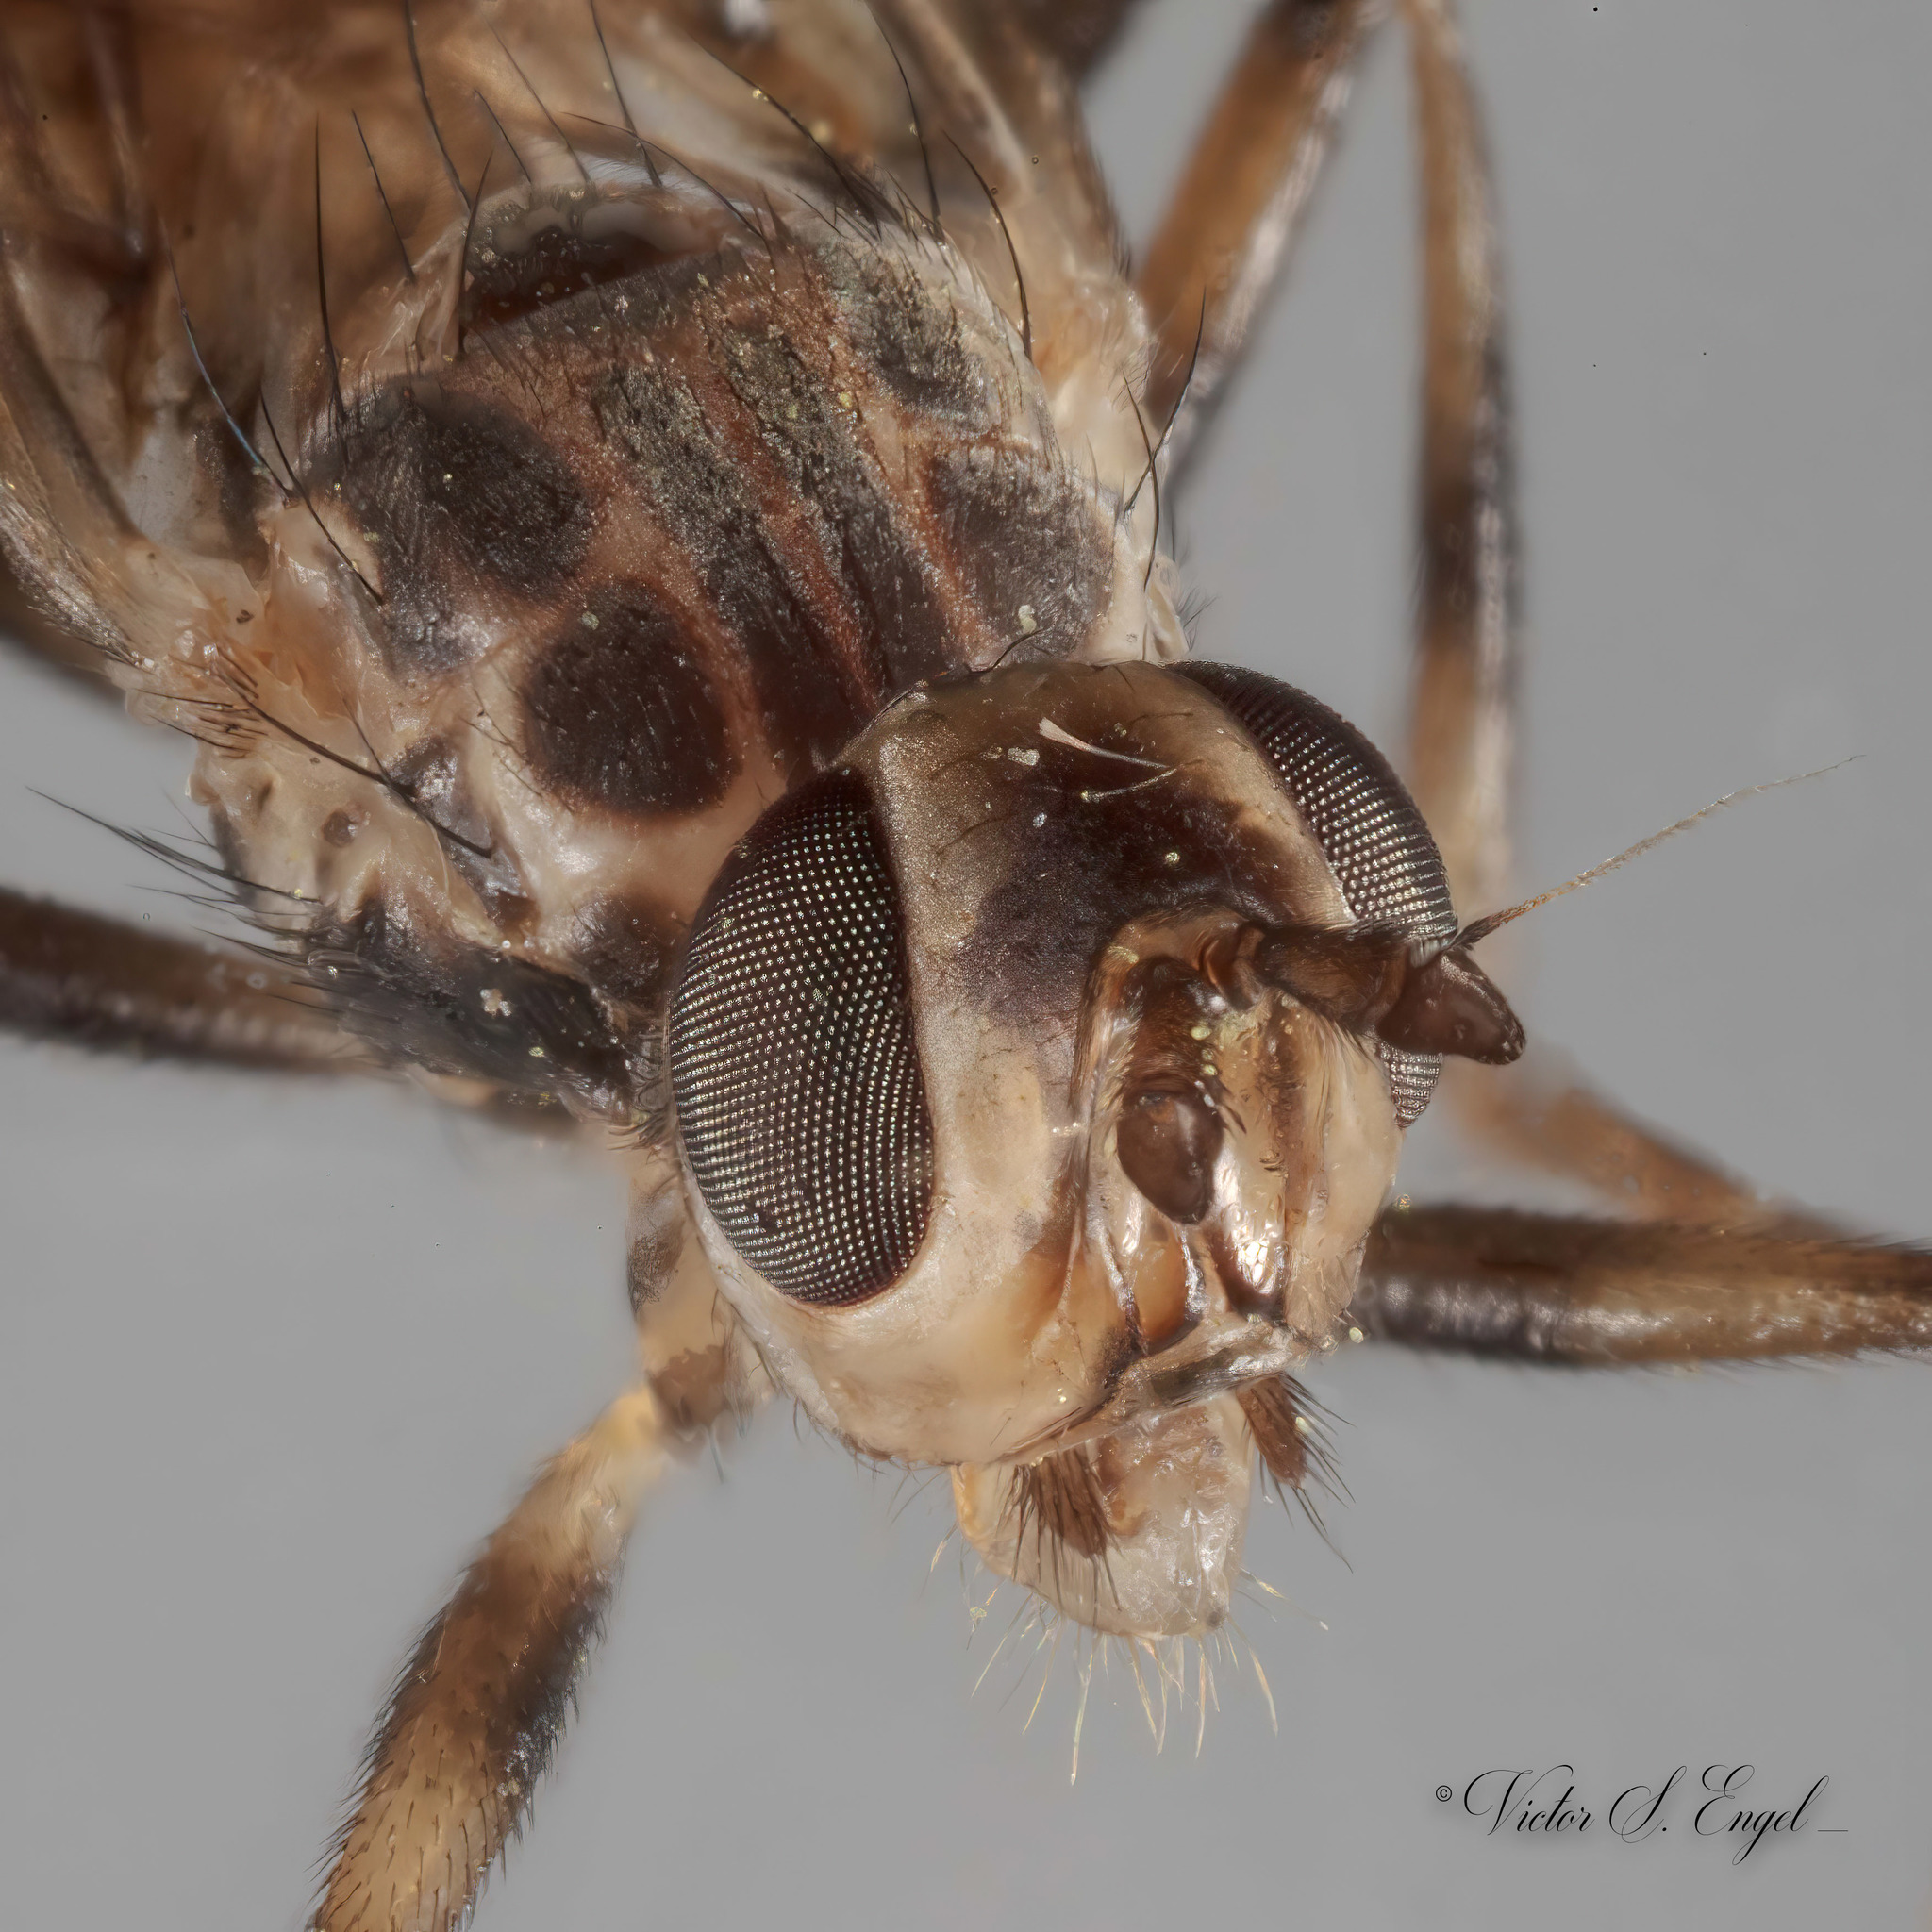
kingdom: Animalia
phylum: Arthropoda
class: Insecta
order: Diptera
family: Pyrgotidae
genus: Boreothrinax
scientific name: Boreothrinax
